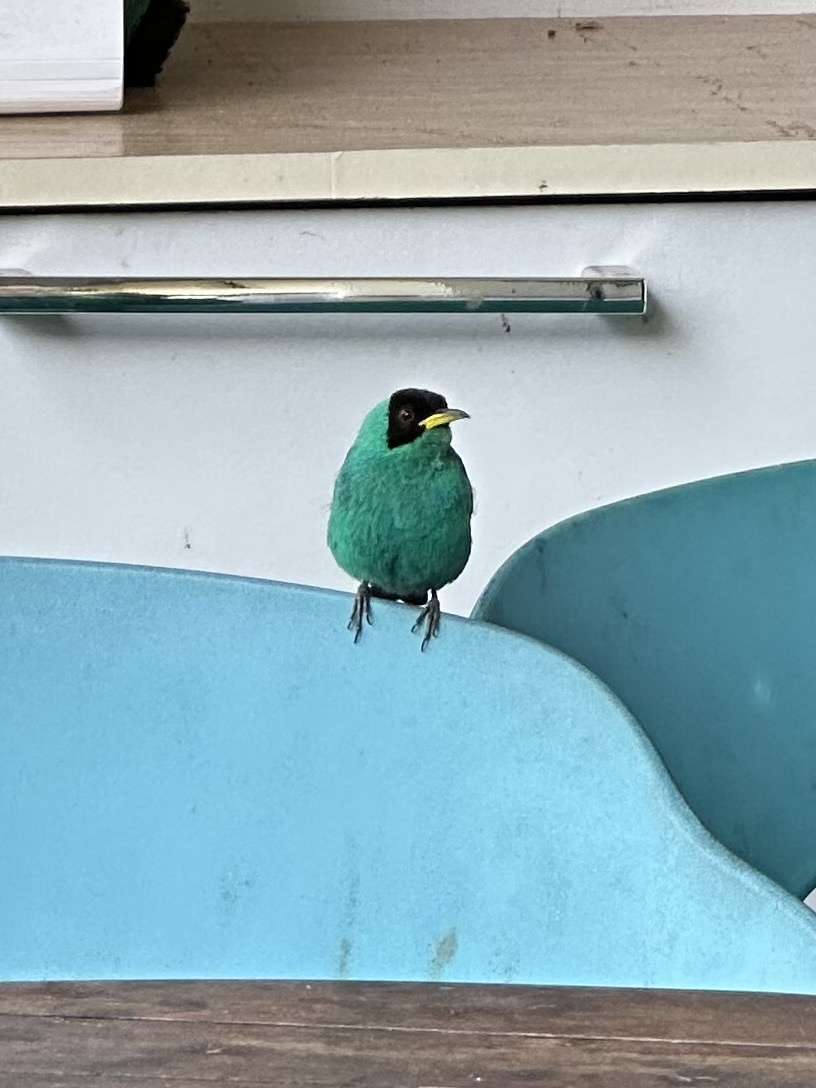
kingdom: Animalia
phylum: Chordata
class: Aves
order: Passeriformes
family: Thraupidae
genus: Chlorophanes
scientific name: Chlorophanes spiza
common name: Green honeycreeper
